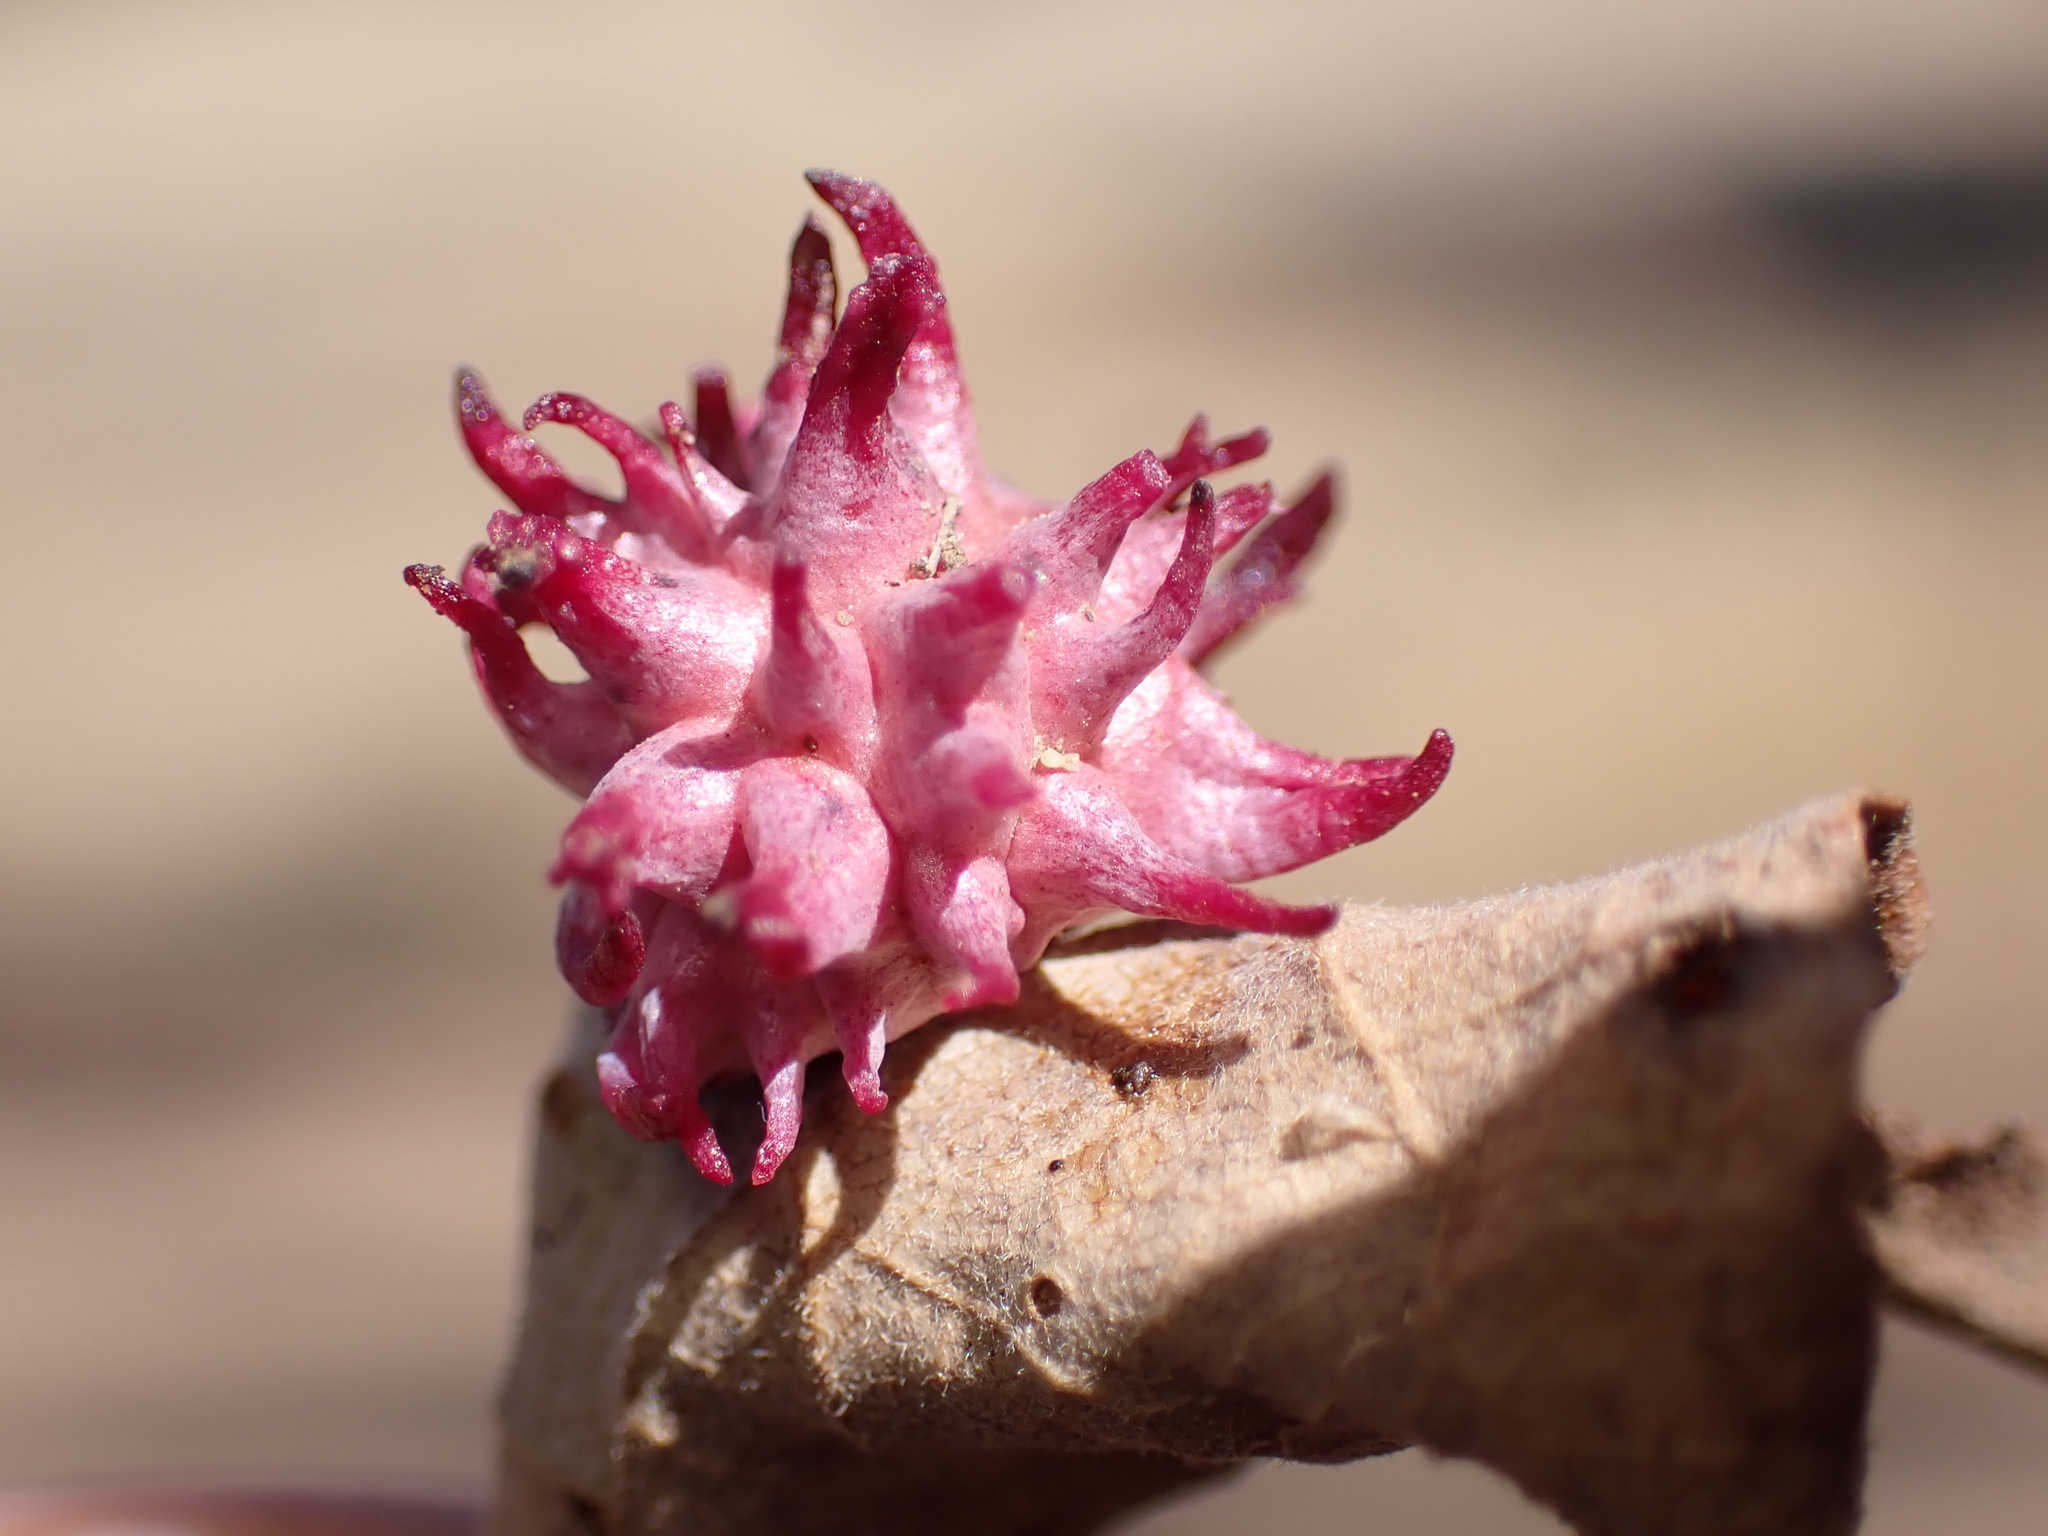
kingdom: Animalia
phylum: Arthropoda
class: Insecta
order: Hymenoptera
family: Cynipidae
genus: Cynips
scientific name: Cynips
